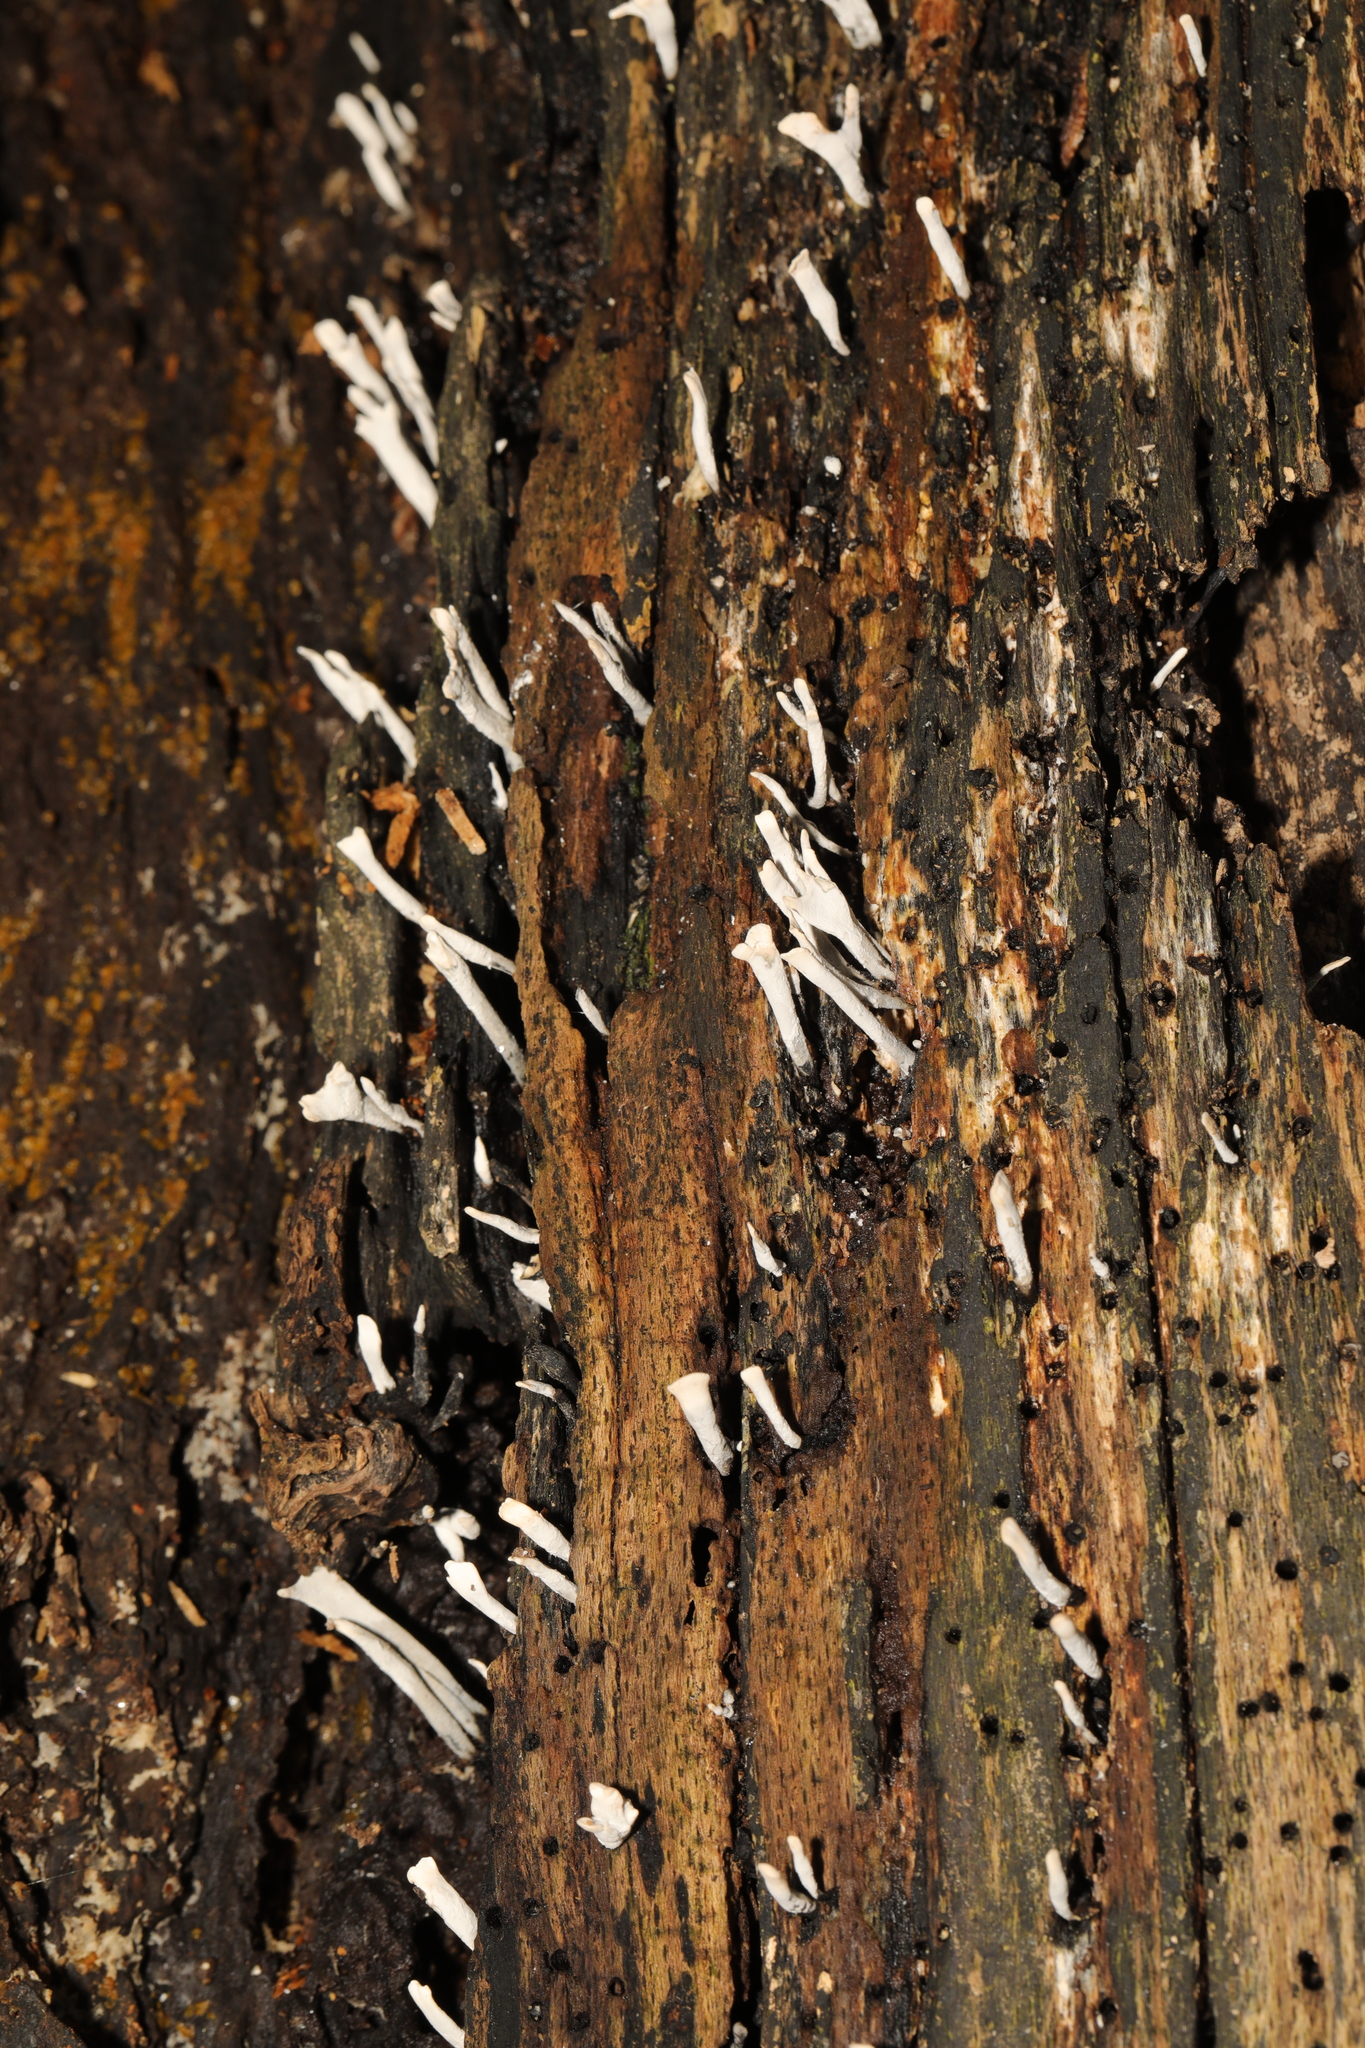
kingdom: Fungi
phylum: Ascomycota
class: Sordariomycetes
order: Xylariales
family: Xylariaceae
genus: Xylaria
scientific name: Xylaria hypoxylon
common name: Candle-snuff fungus
